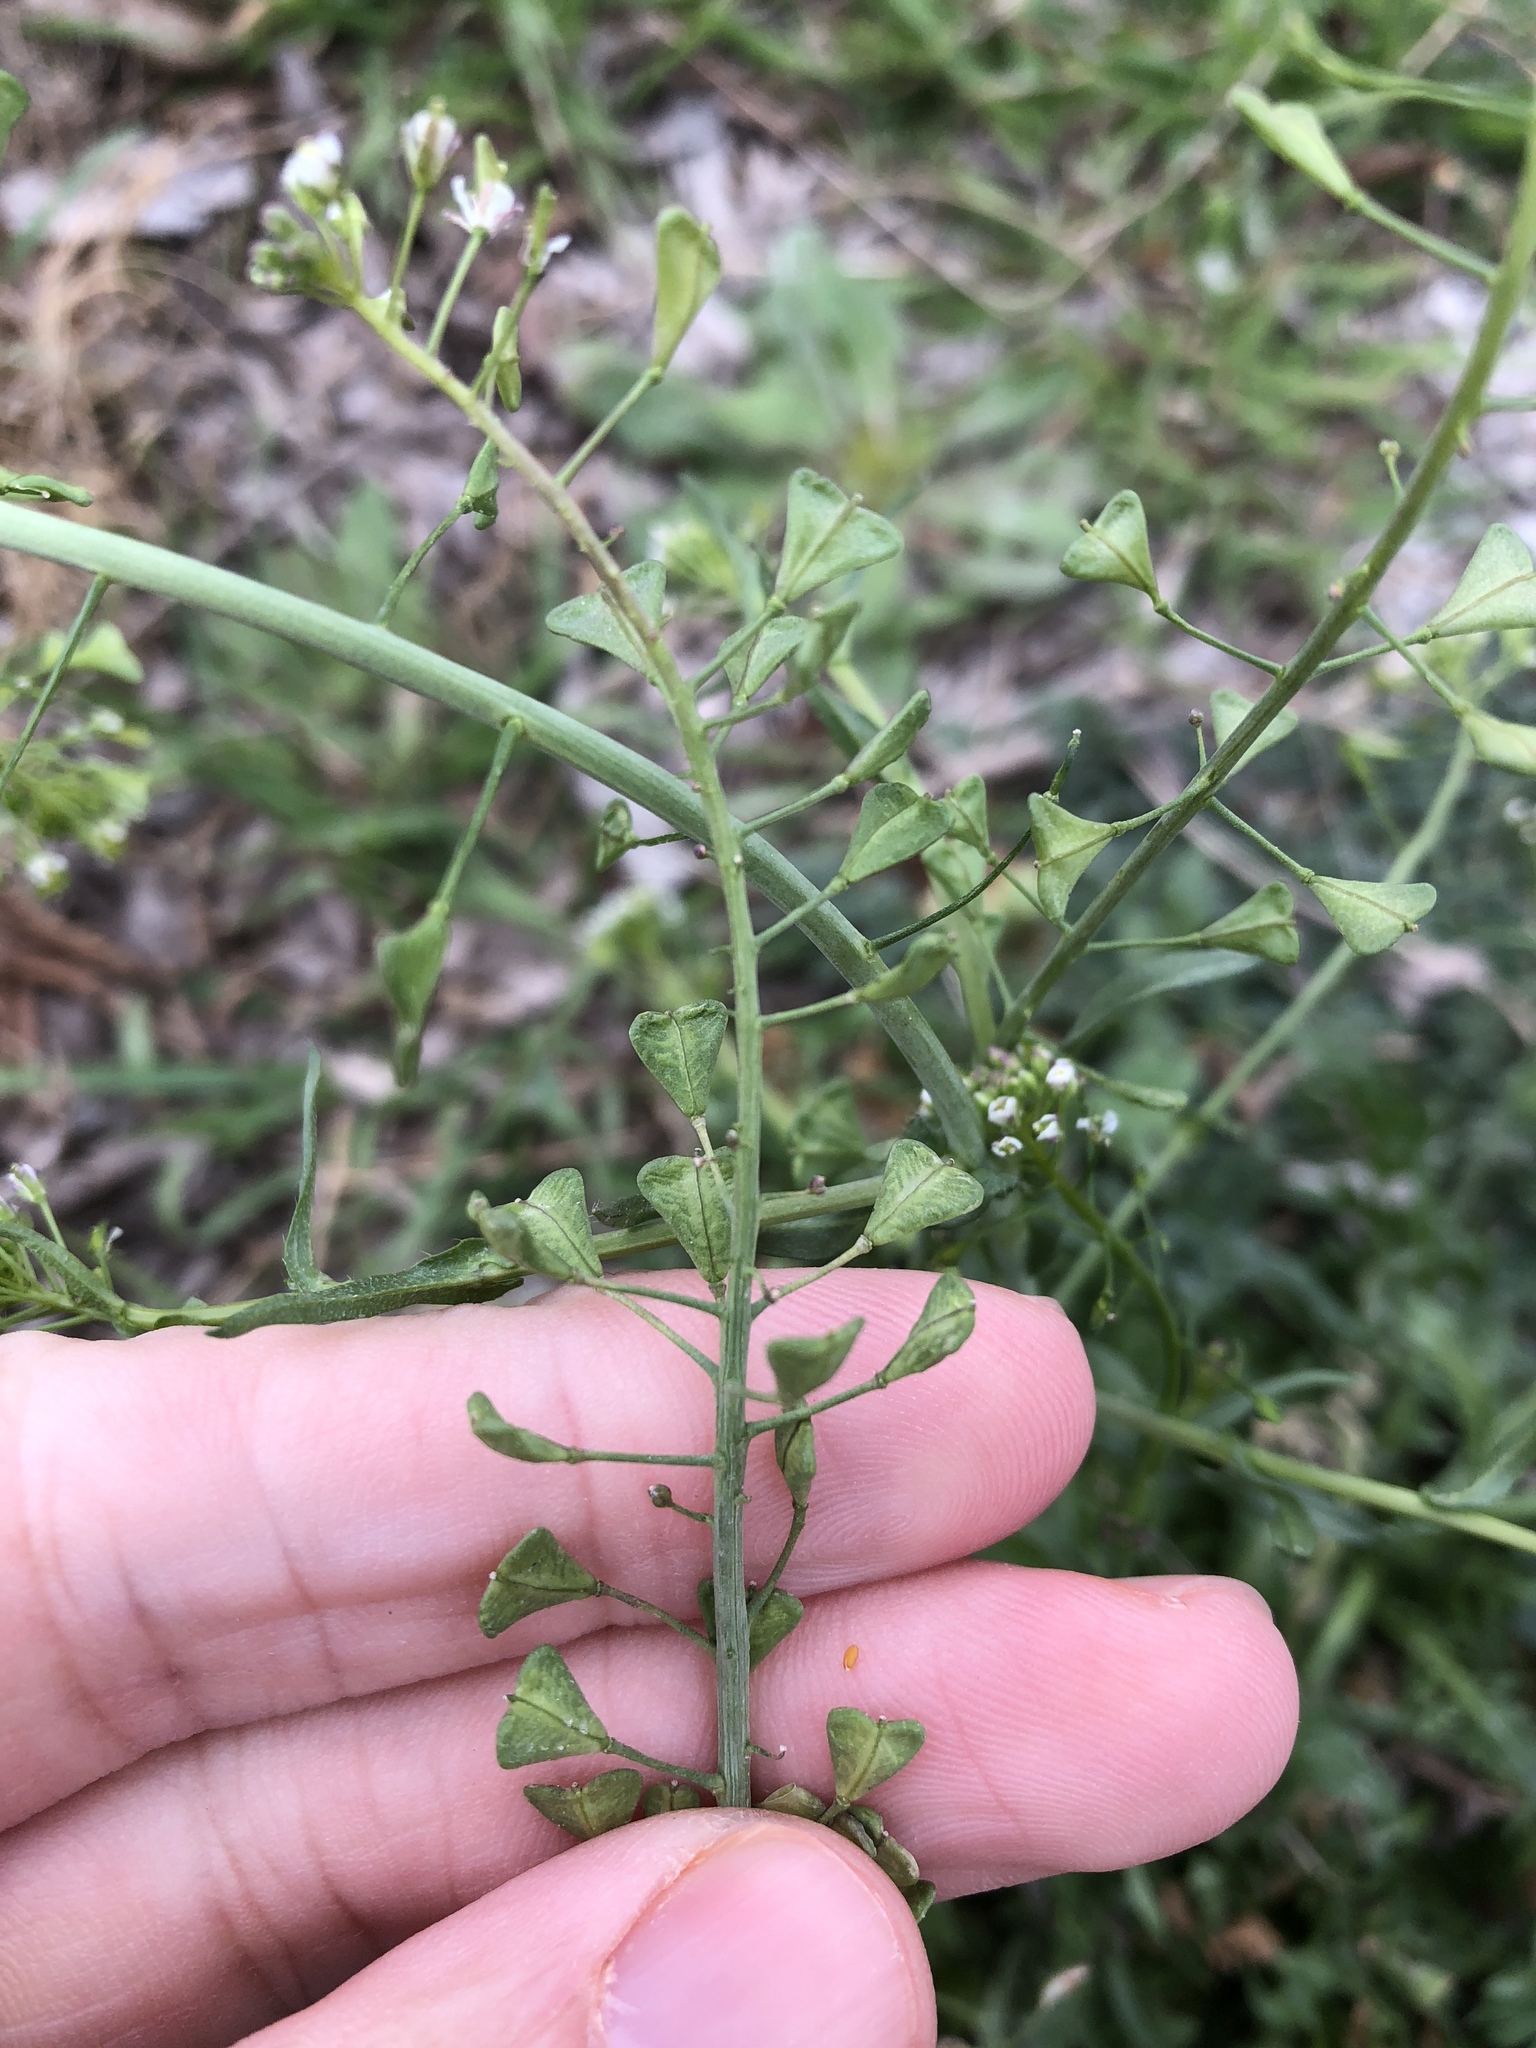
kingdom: Plantae
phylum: Tracheophyta
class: Magnoliopsida
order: Brassicales
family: Brassicaceae
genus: Capsella
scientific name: Capsella bursa-pastoris
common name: Shepherd's purse
